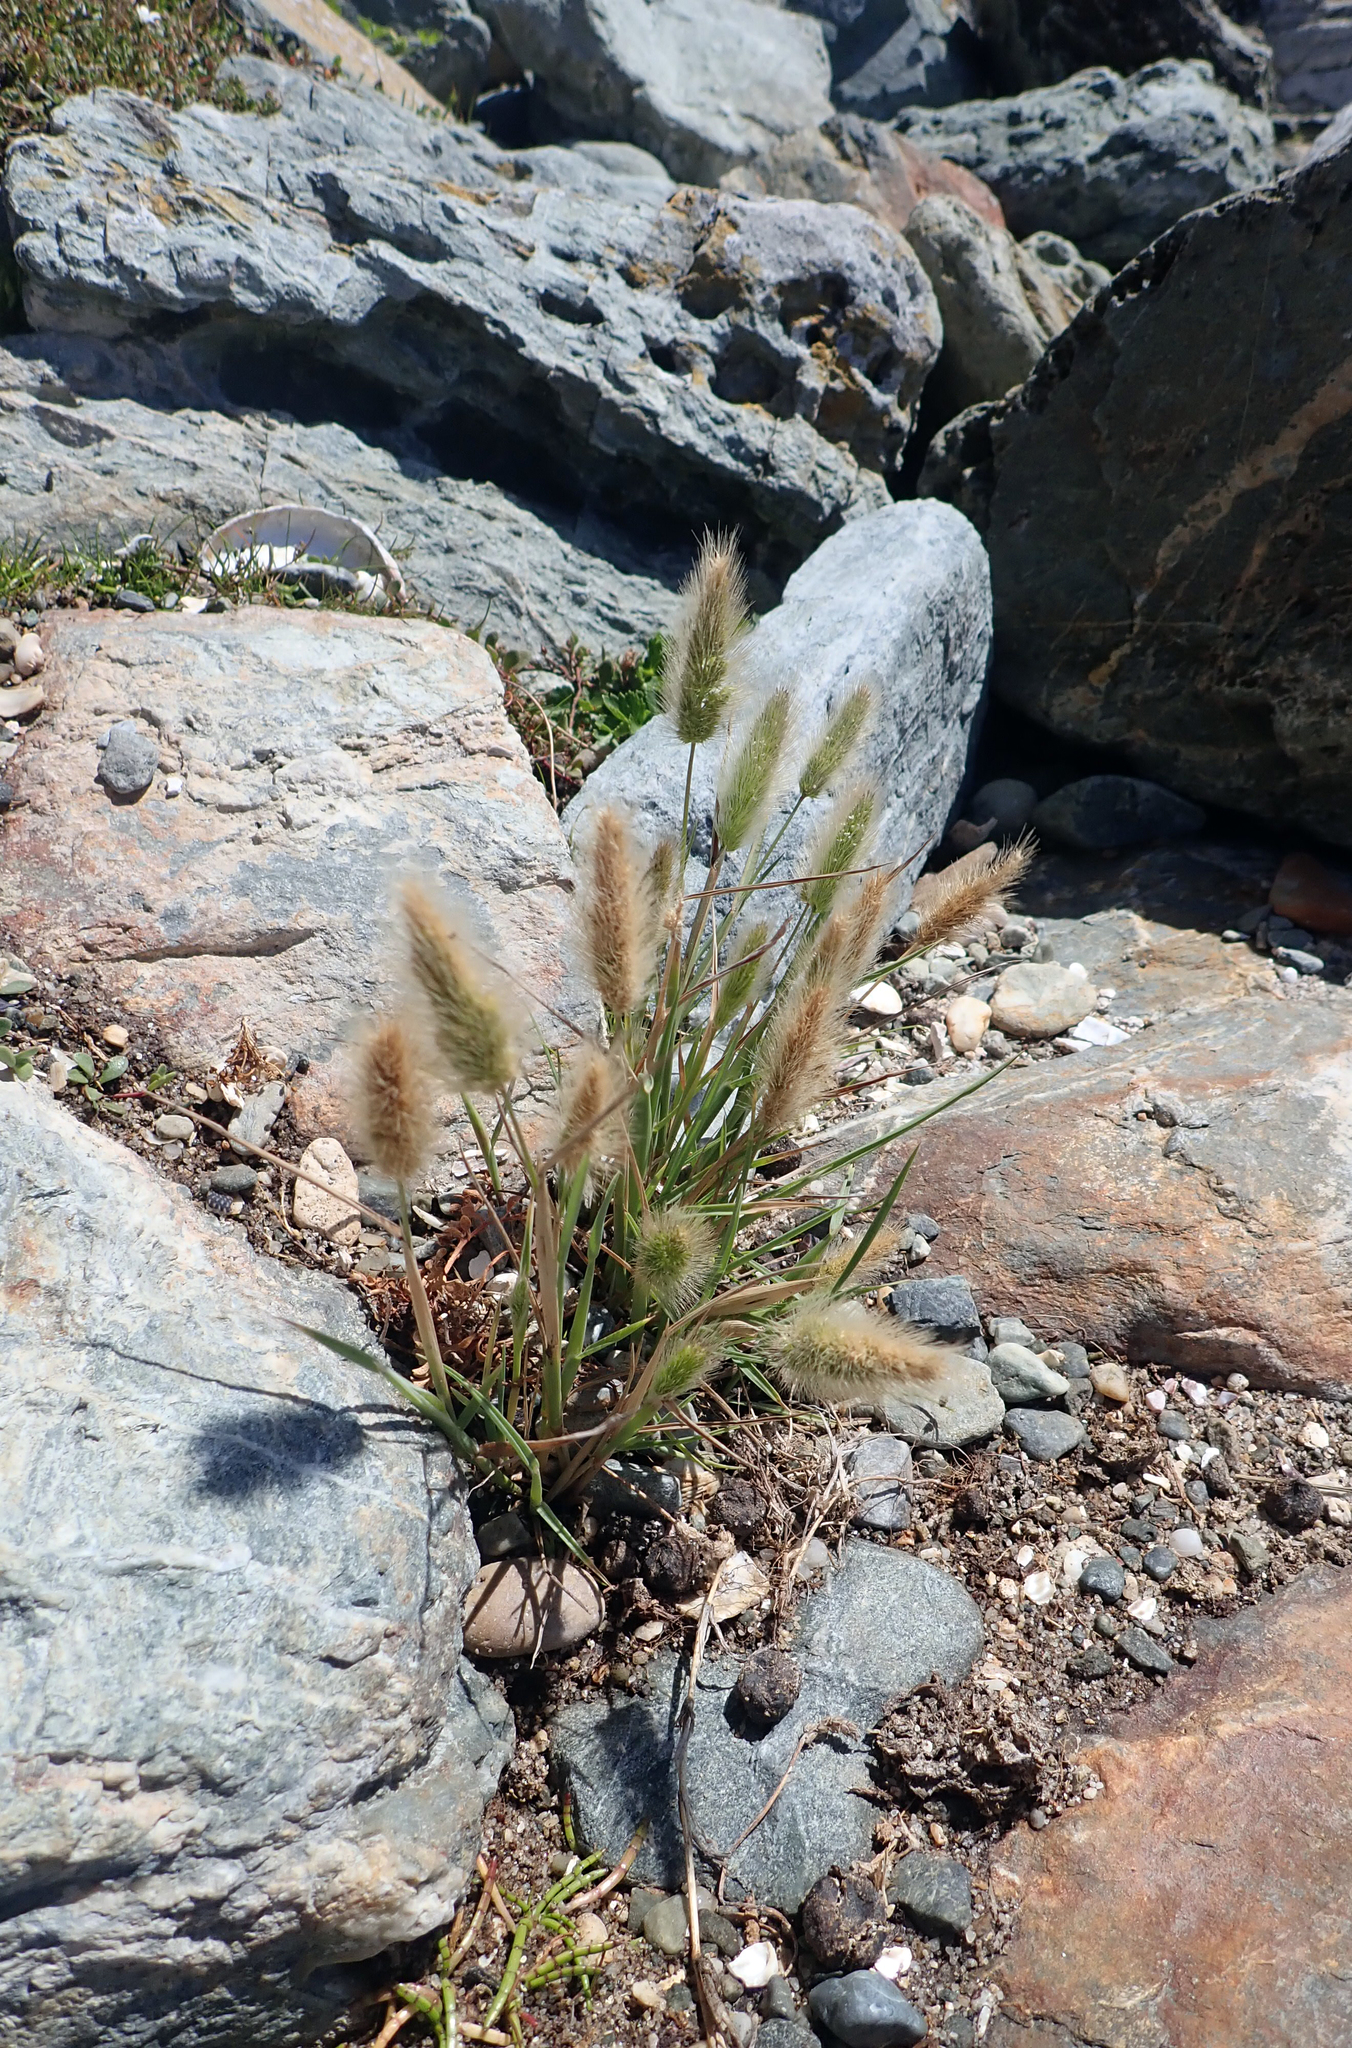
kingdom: Plantae
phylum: Tracheophyta
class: Liliopsida
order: Poales
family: Poaceae
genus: Polypogon
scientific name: Polypogon monspeliensis
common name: Annual rabbitsfoot grass
